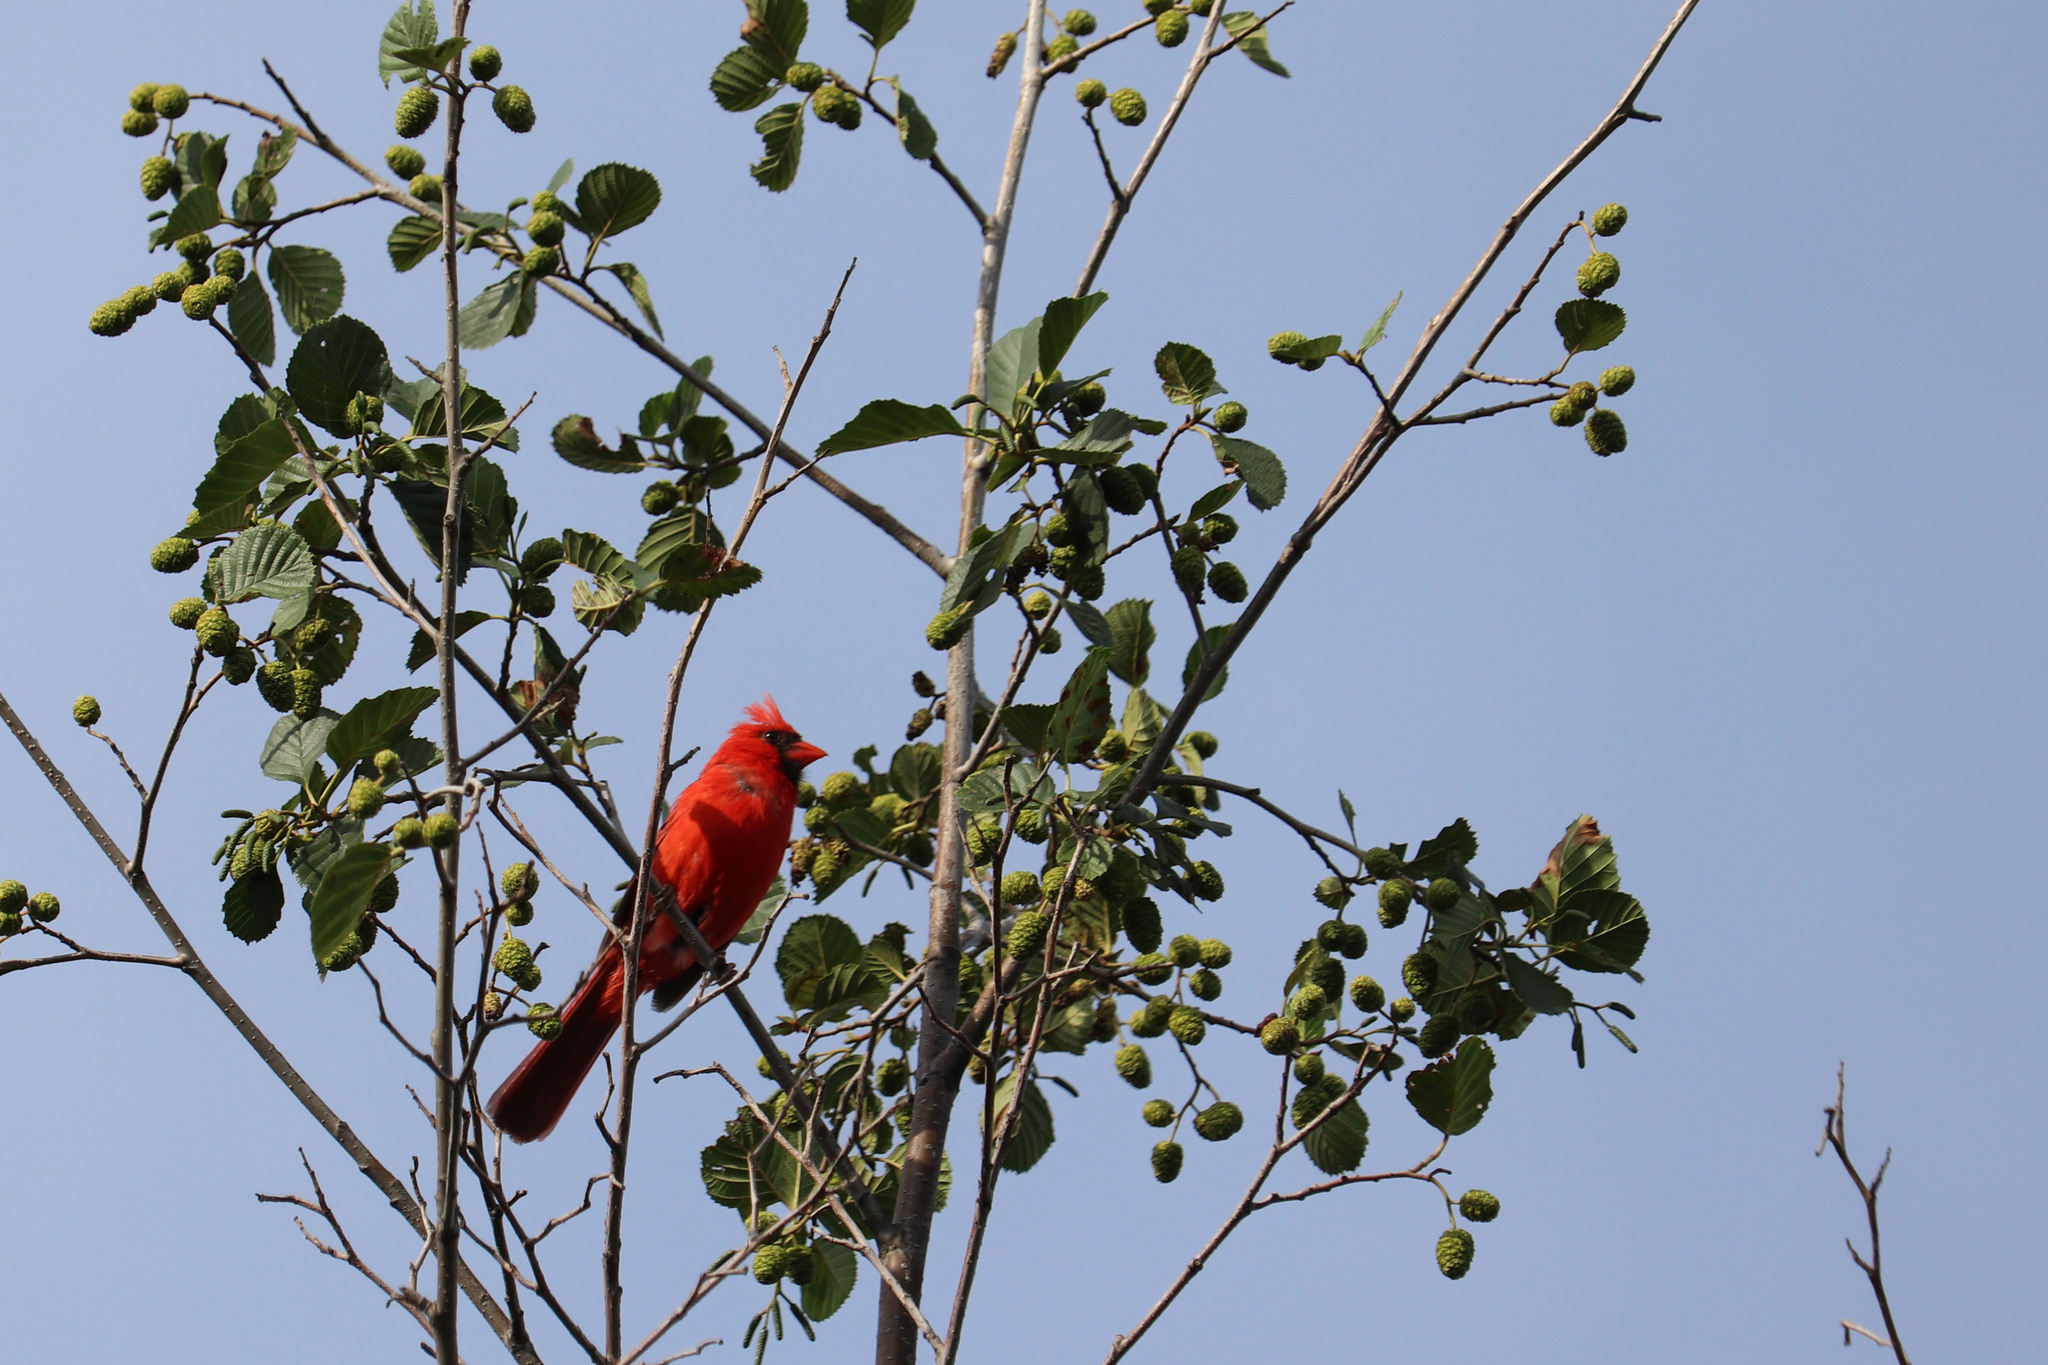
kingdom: Animalia
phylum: Chordata
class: Aves
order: Passeriformes
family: Cardinalidae
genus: Cardinalis
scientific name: Cardinalis cardinalis
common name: Northern cardinal
